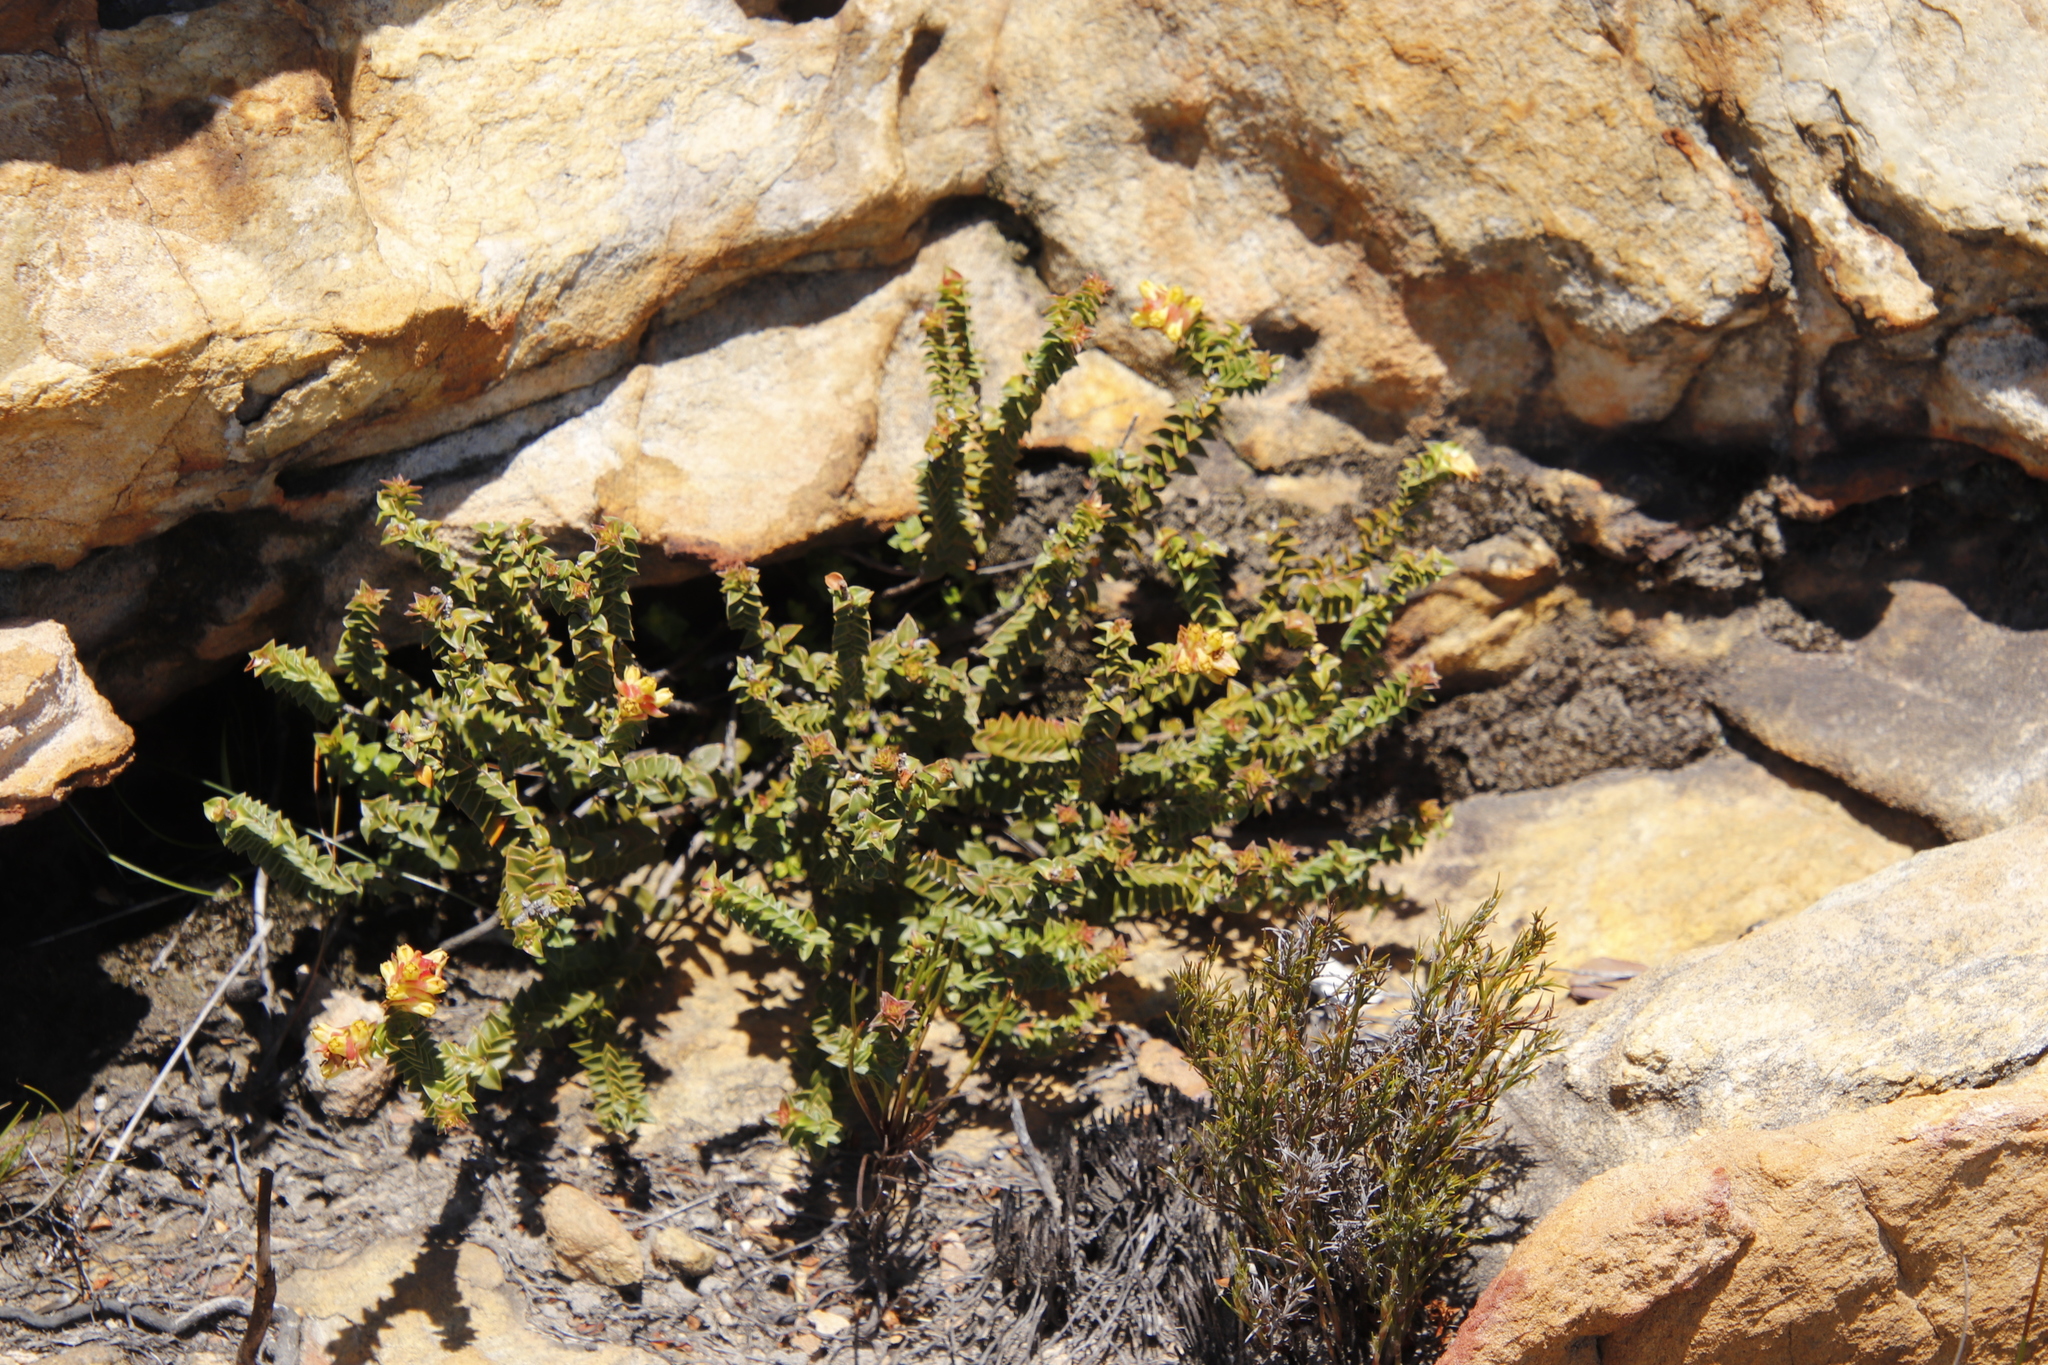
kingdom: Plantae
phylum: Tracheophyta
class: Magnoliopsida
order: Myrtales
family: Penaeaceae
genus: Penaea
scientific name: Penaea mucronata
